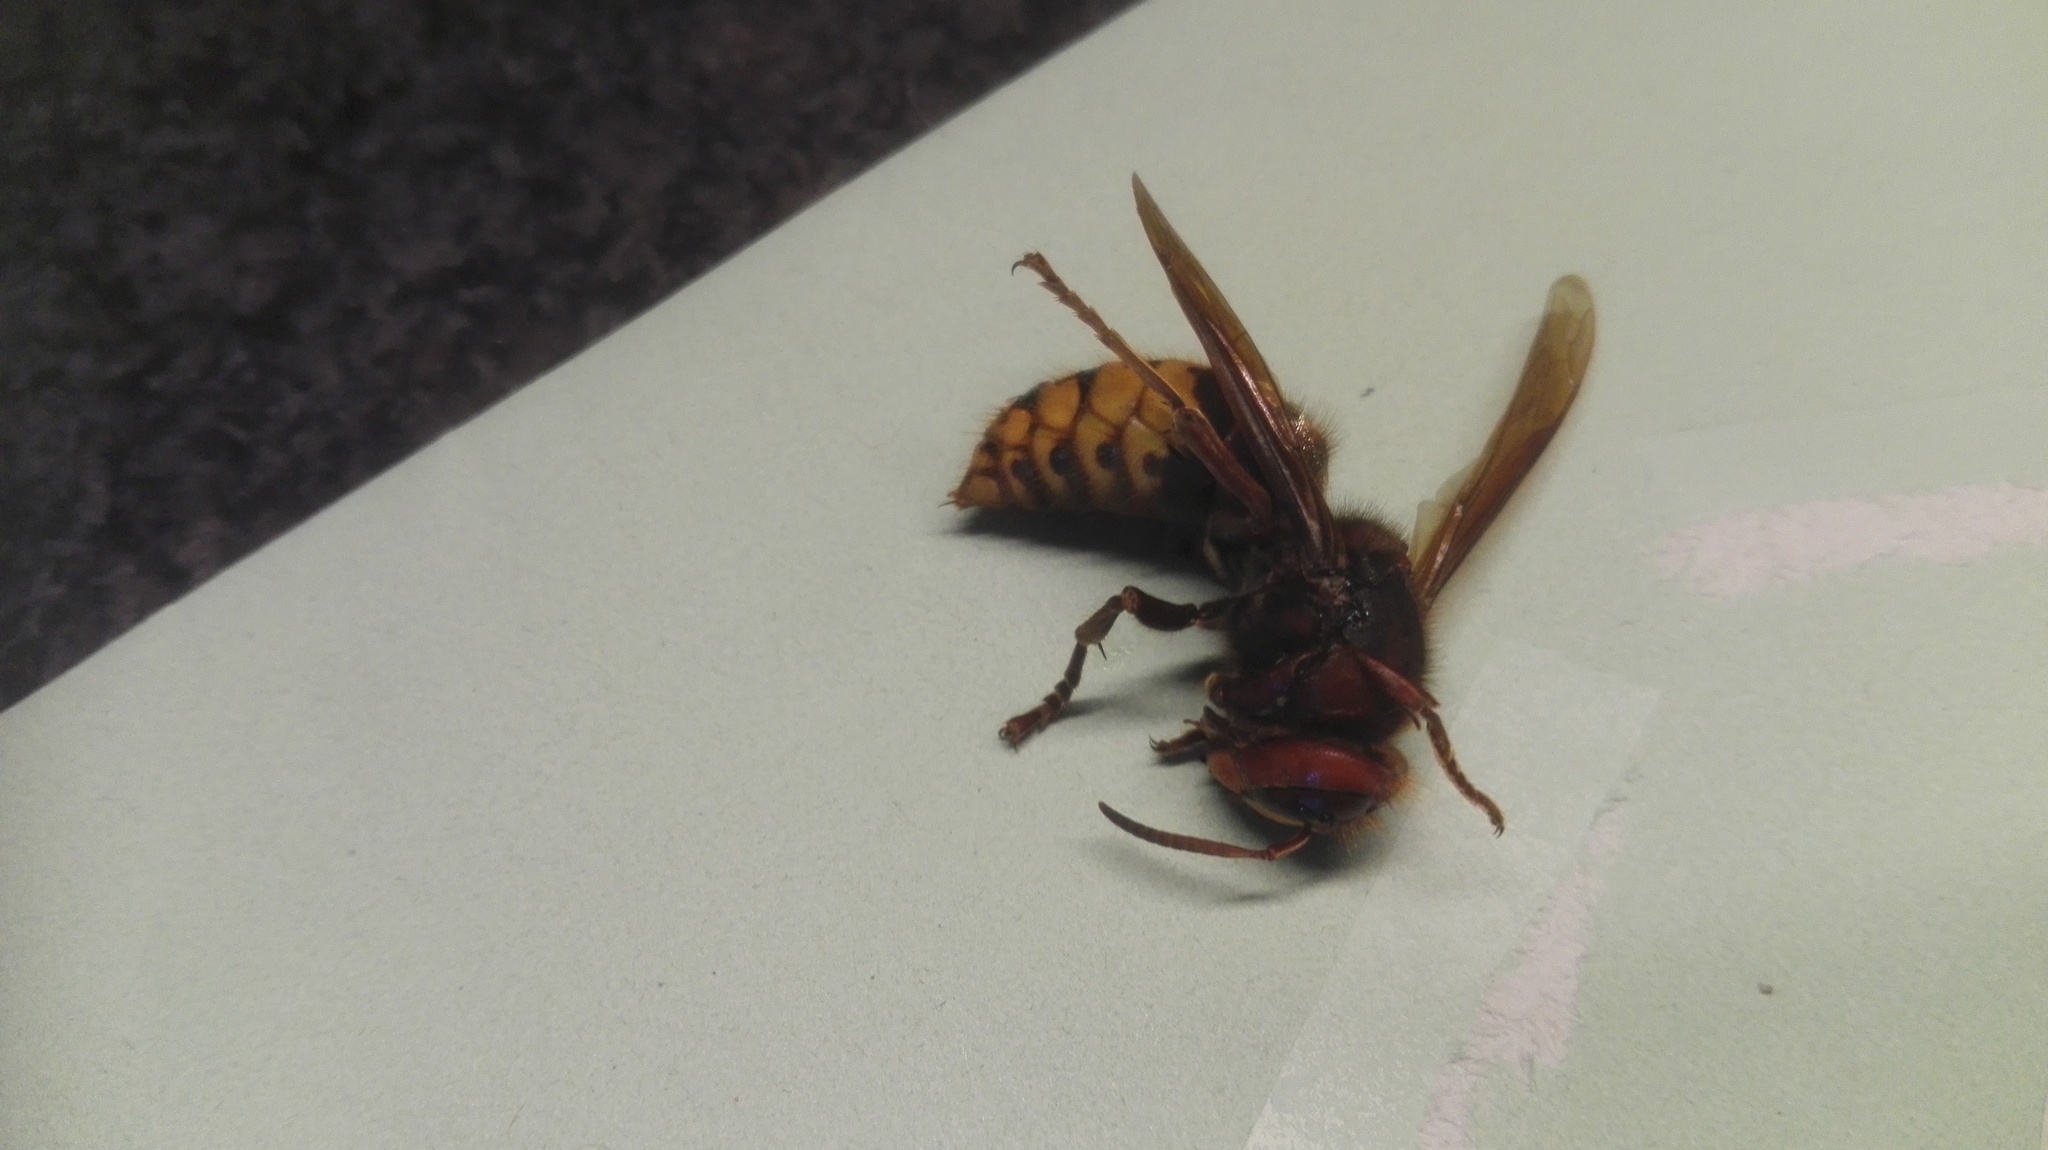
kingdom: Animalia
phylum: Arthropoda
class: Insecta
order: Hymenoptera
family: Vespidae
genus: Vespa
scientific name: Vespa crabro
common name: Hornet
